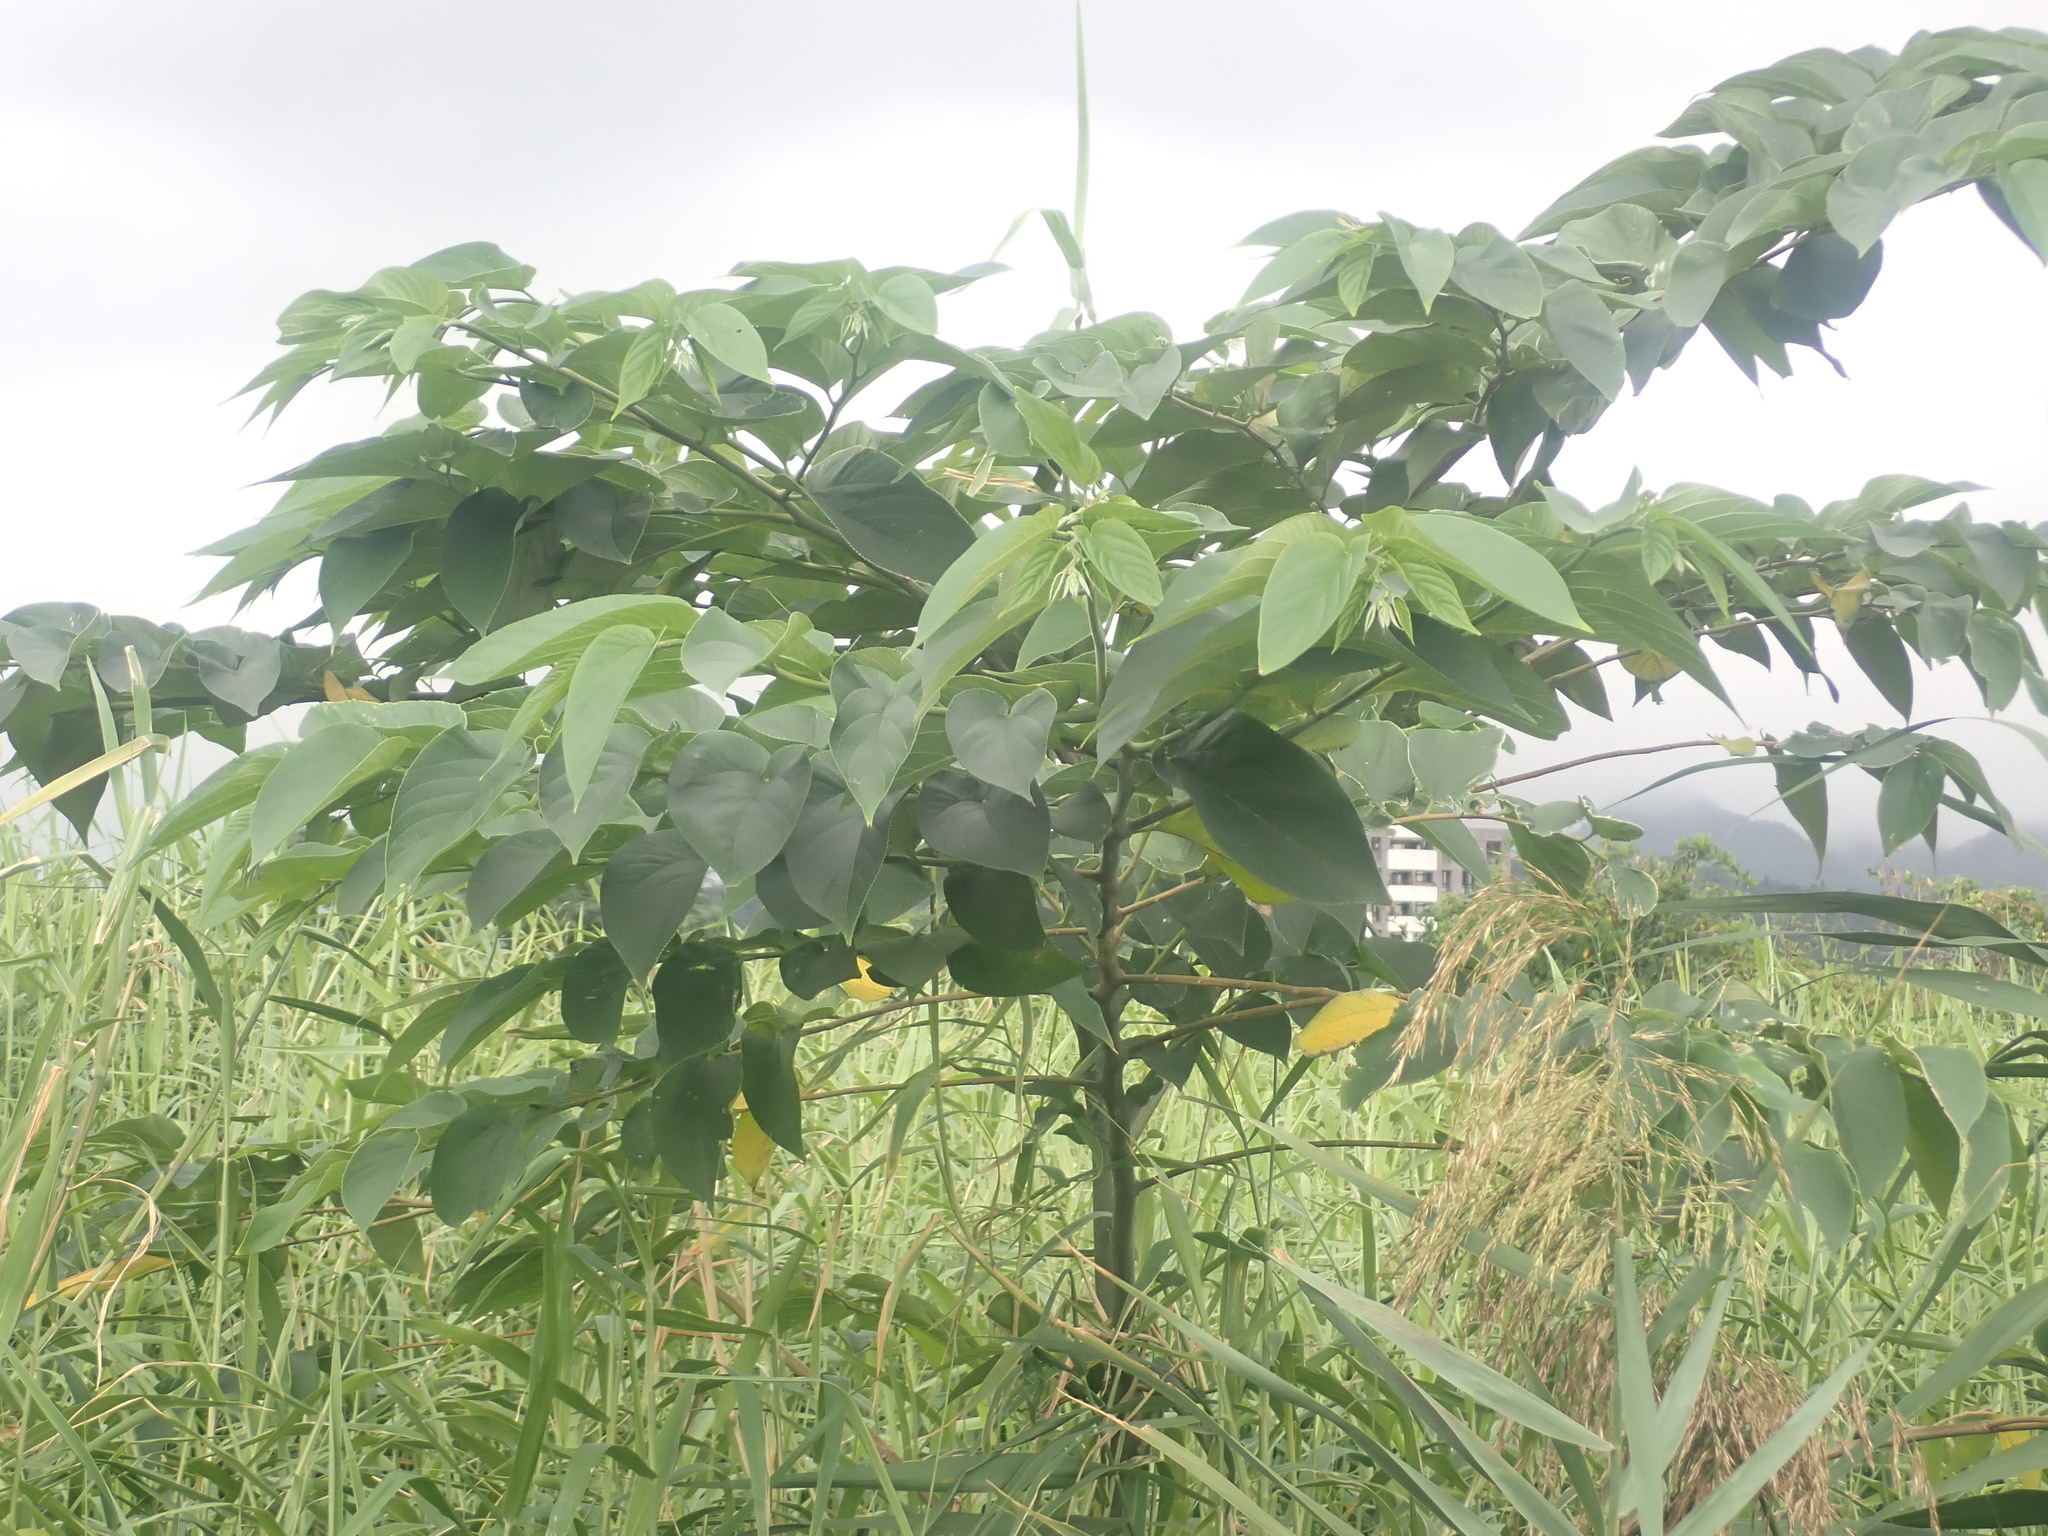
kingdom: Plantae
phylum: Tracheophyta
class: Magnoliopsida
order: Rosales
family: Cannabaceae
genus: Trema
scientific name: Trema orientale
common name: Indian charcoal tree
